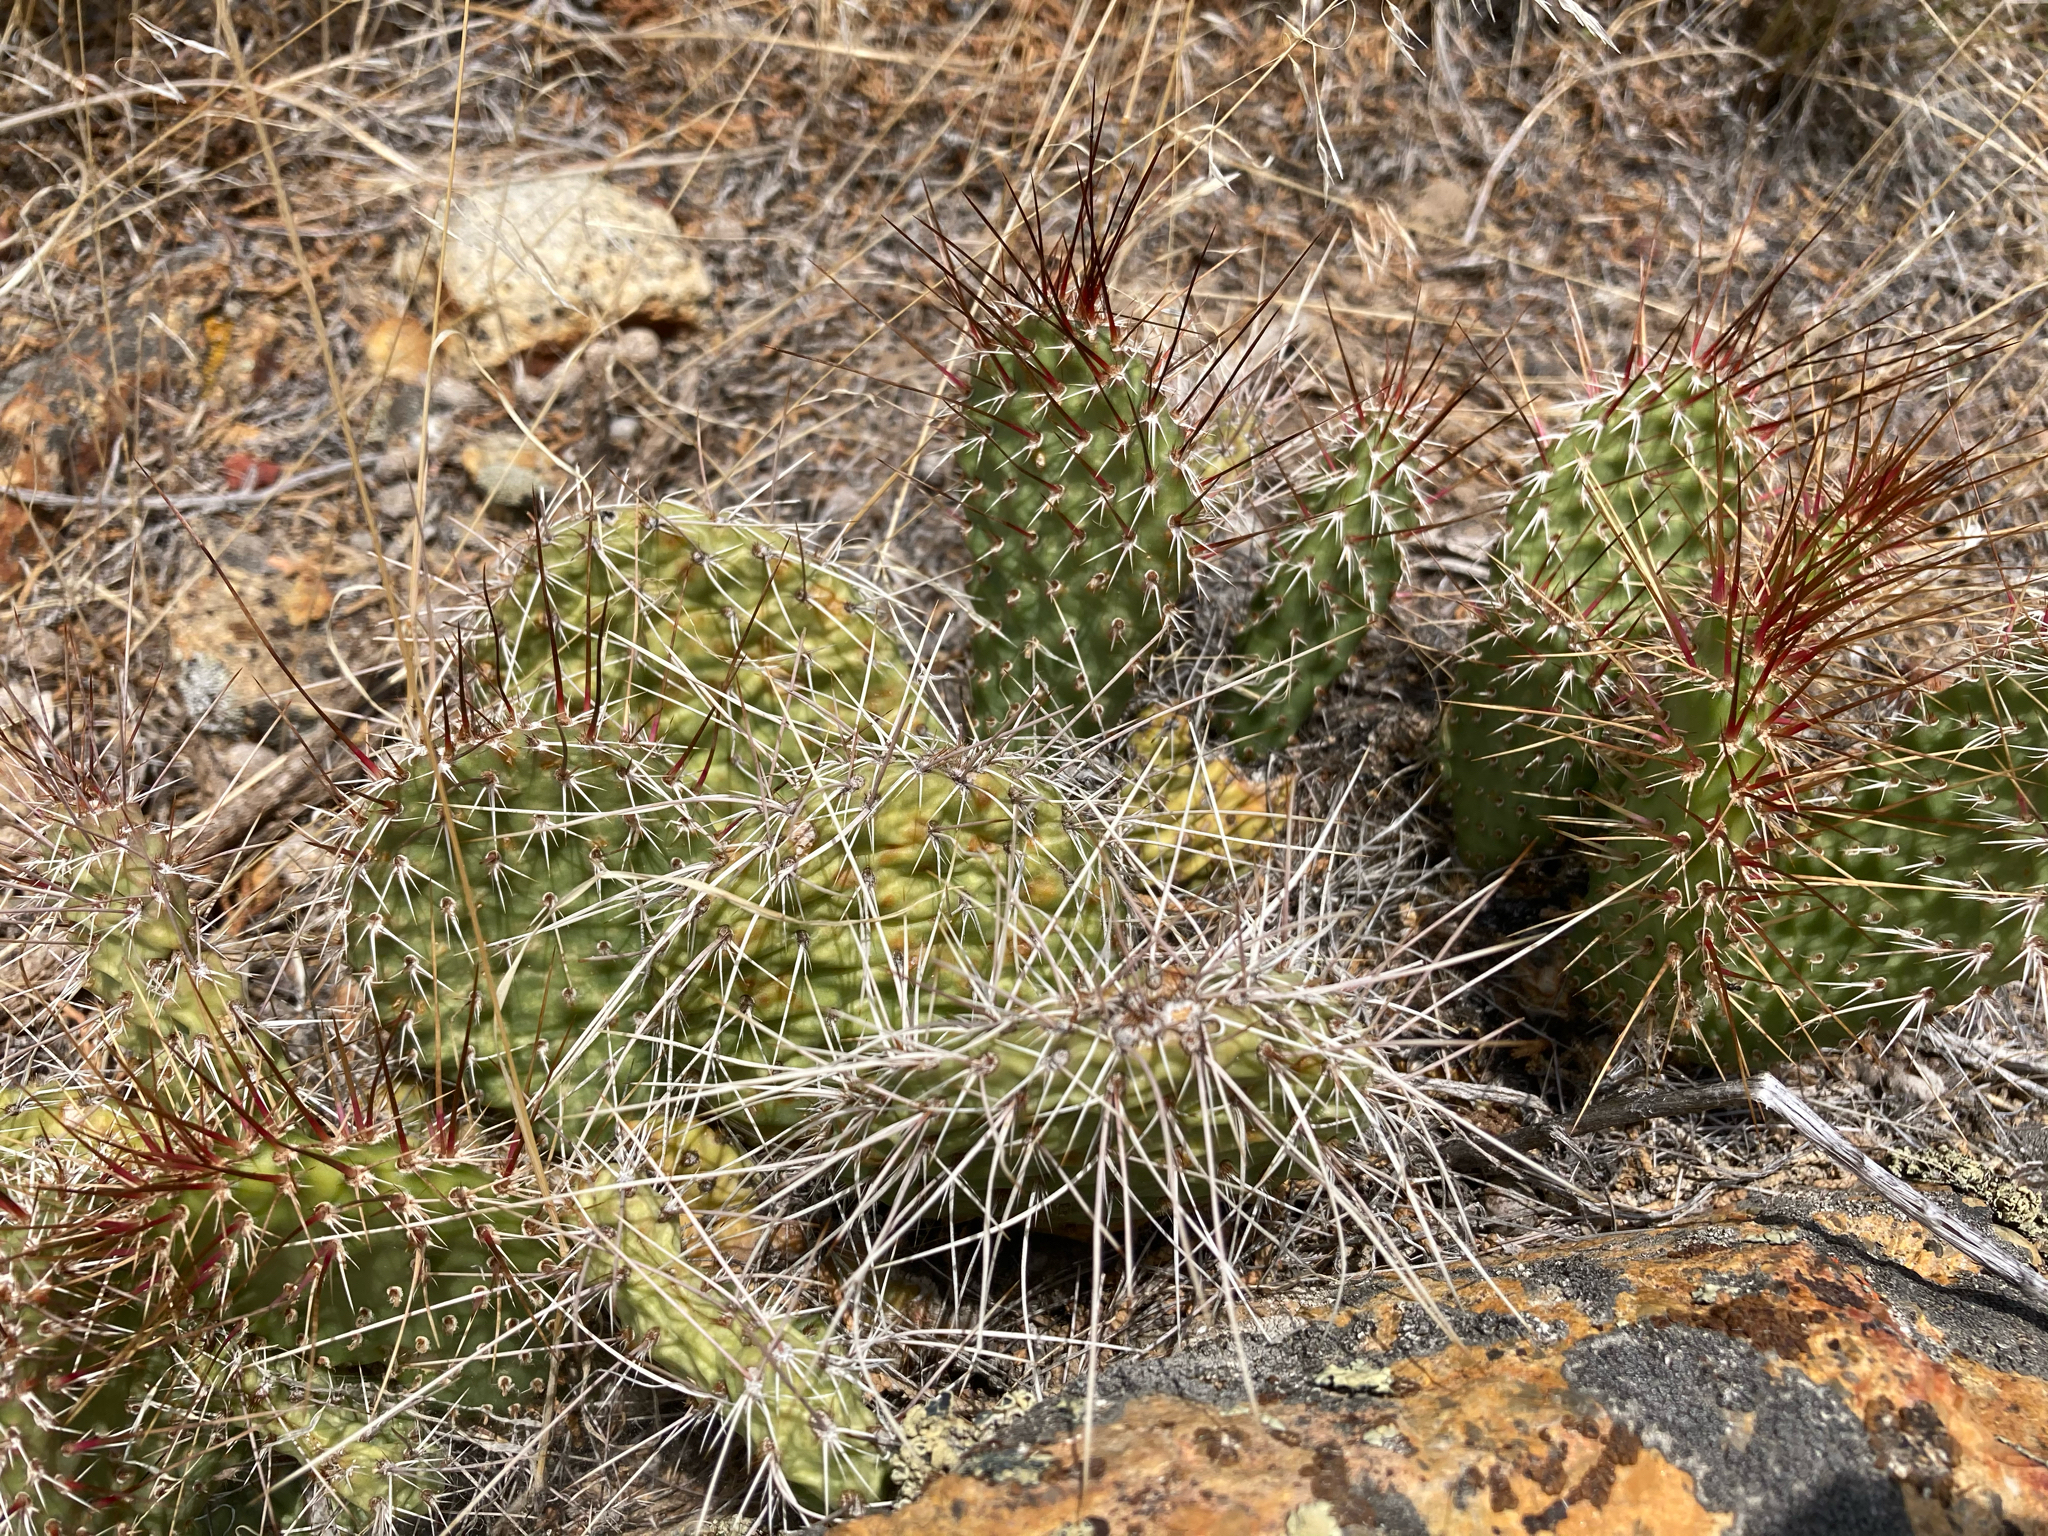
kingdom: Plantae
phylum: Tracheophyta
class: Magnoliopsida
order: Caryophyllales
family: Cactaceae
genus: Opuntia
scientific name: Opuntia polyacantha
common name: Plains prickly-pear
